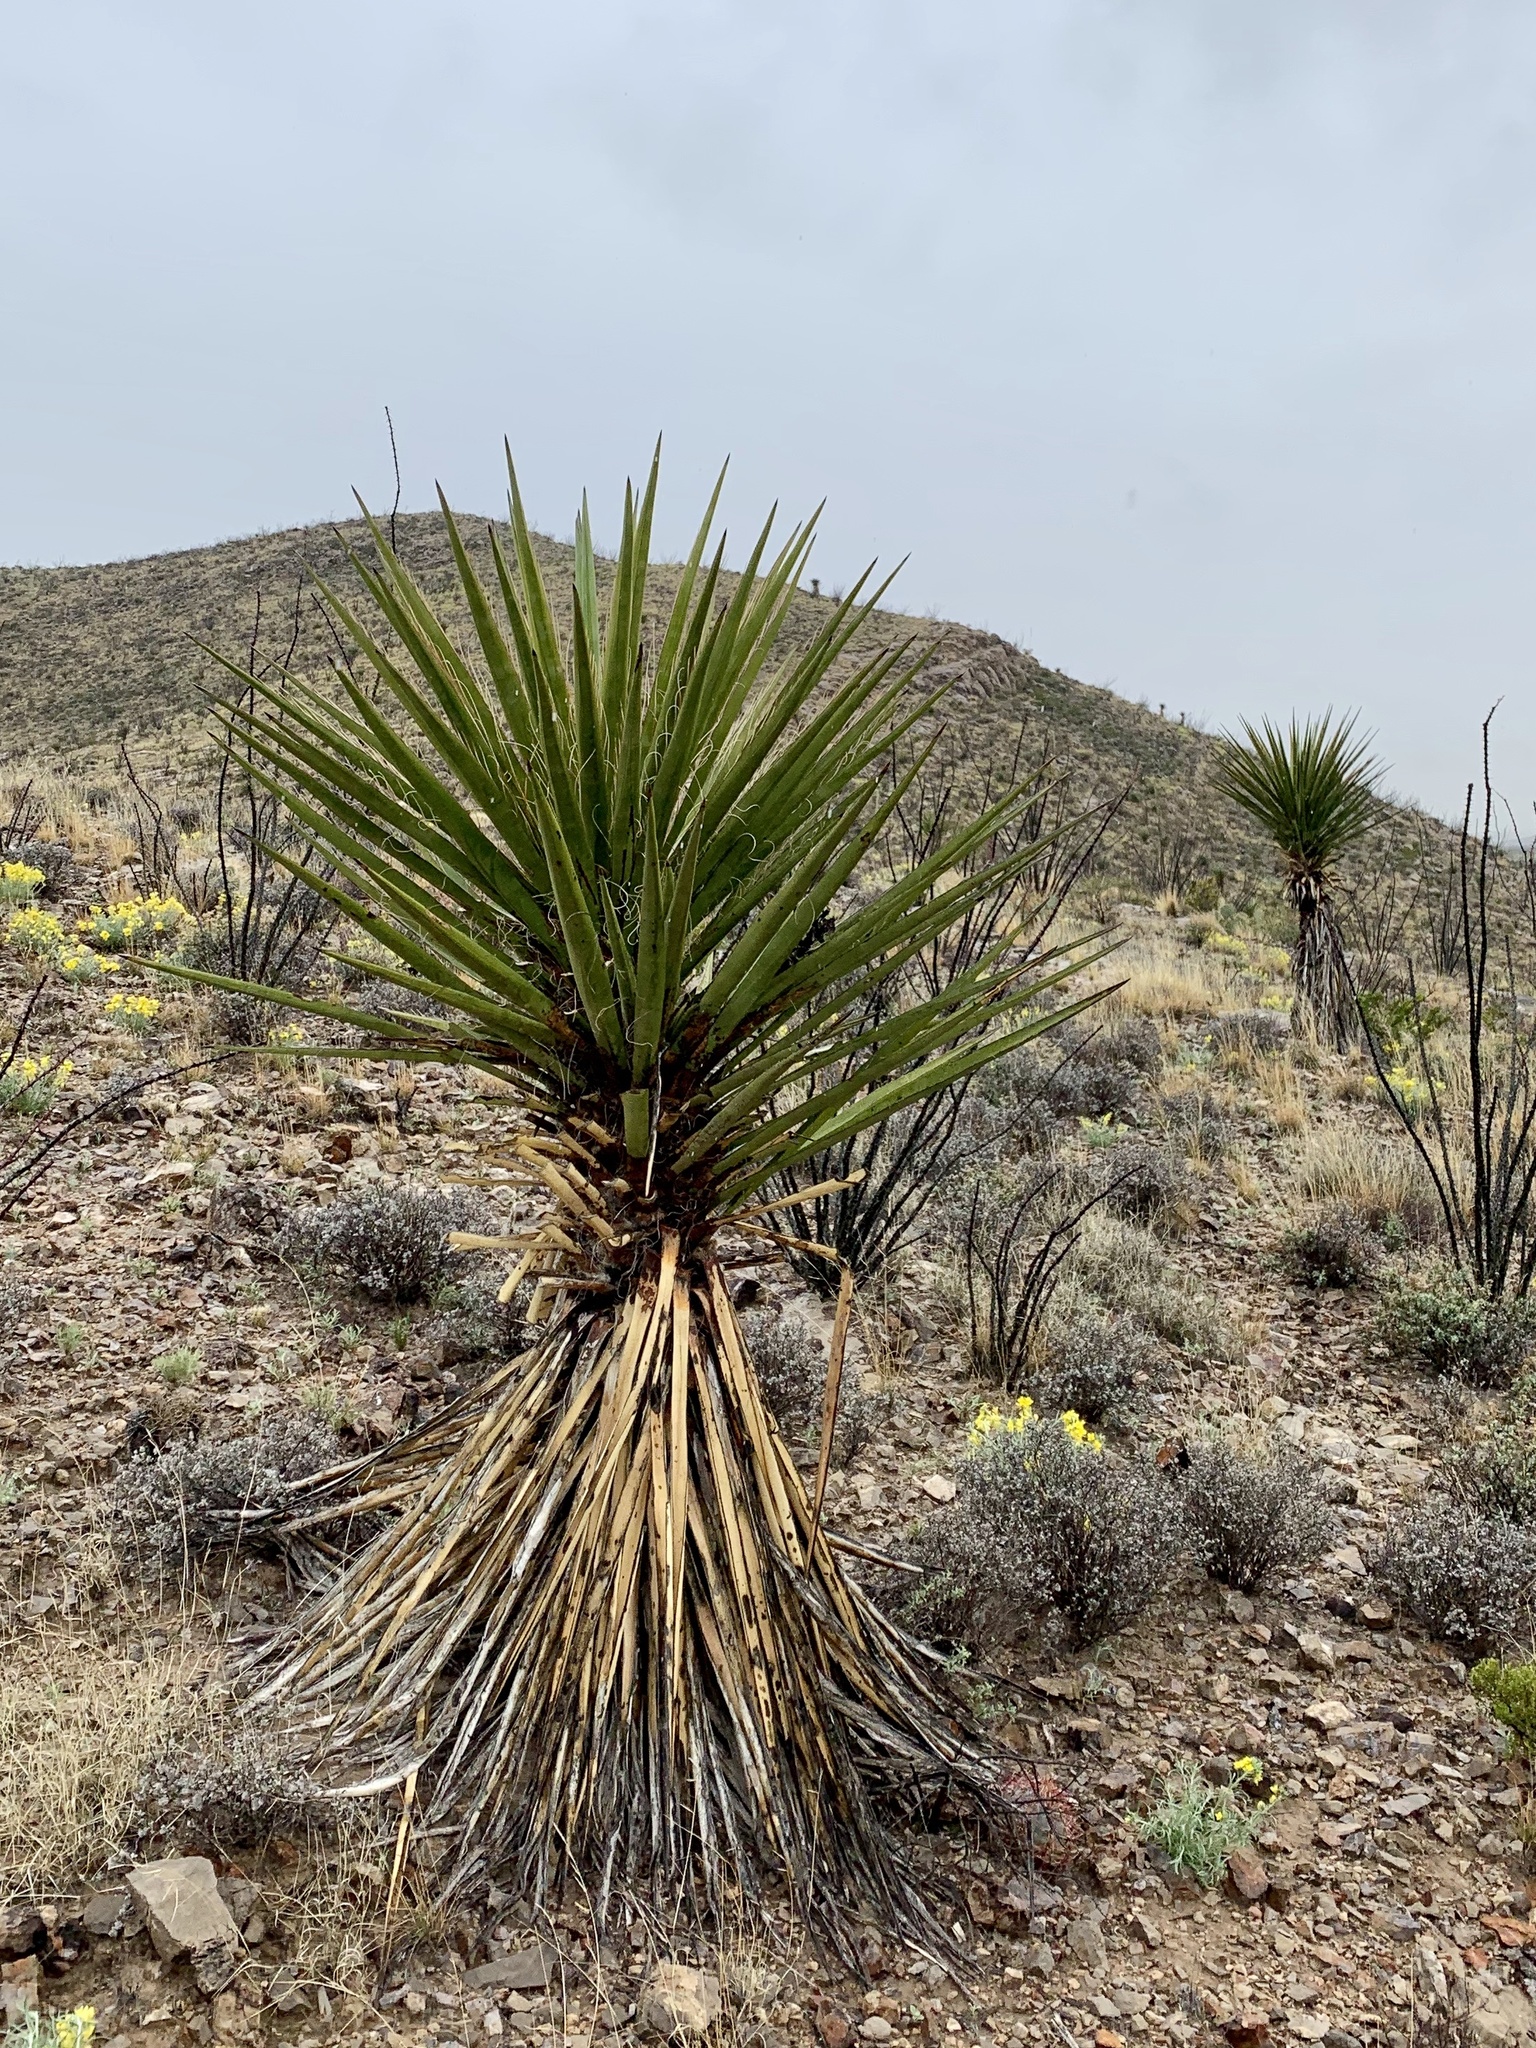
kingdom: Plantae
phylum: Tracheophyta
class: Liliopsida
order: Asparagales
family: Asparagaceae
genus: Yucca
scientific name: Yucca treculiana
